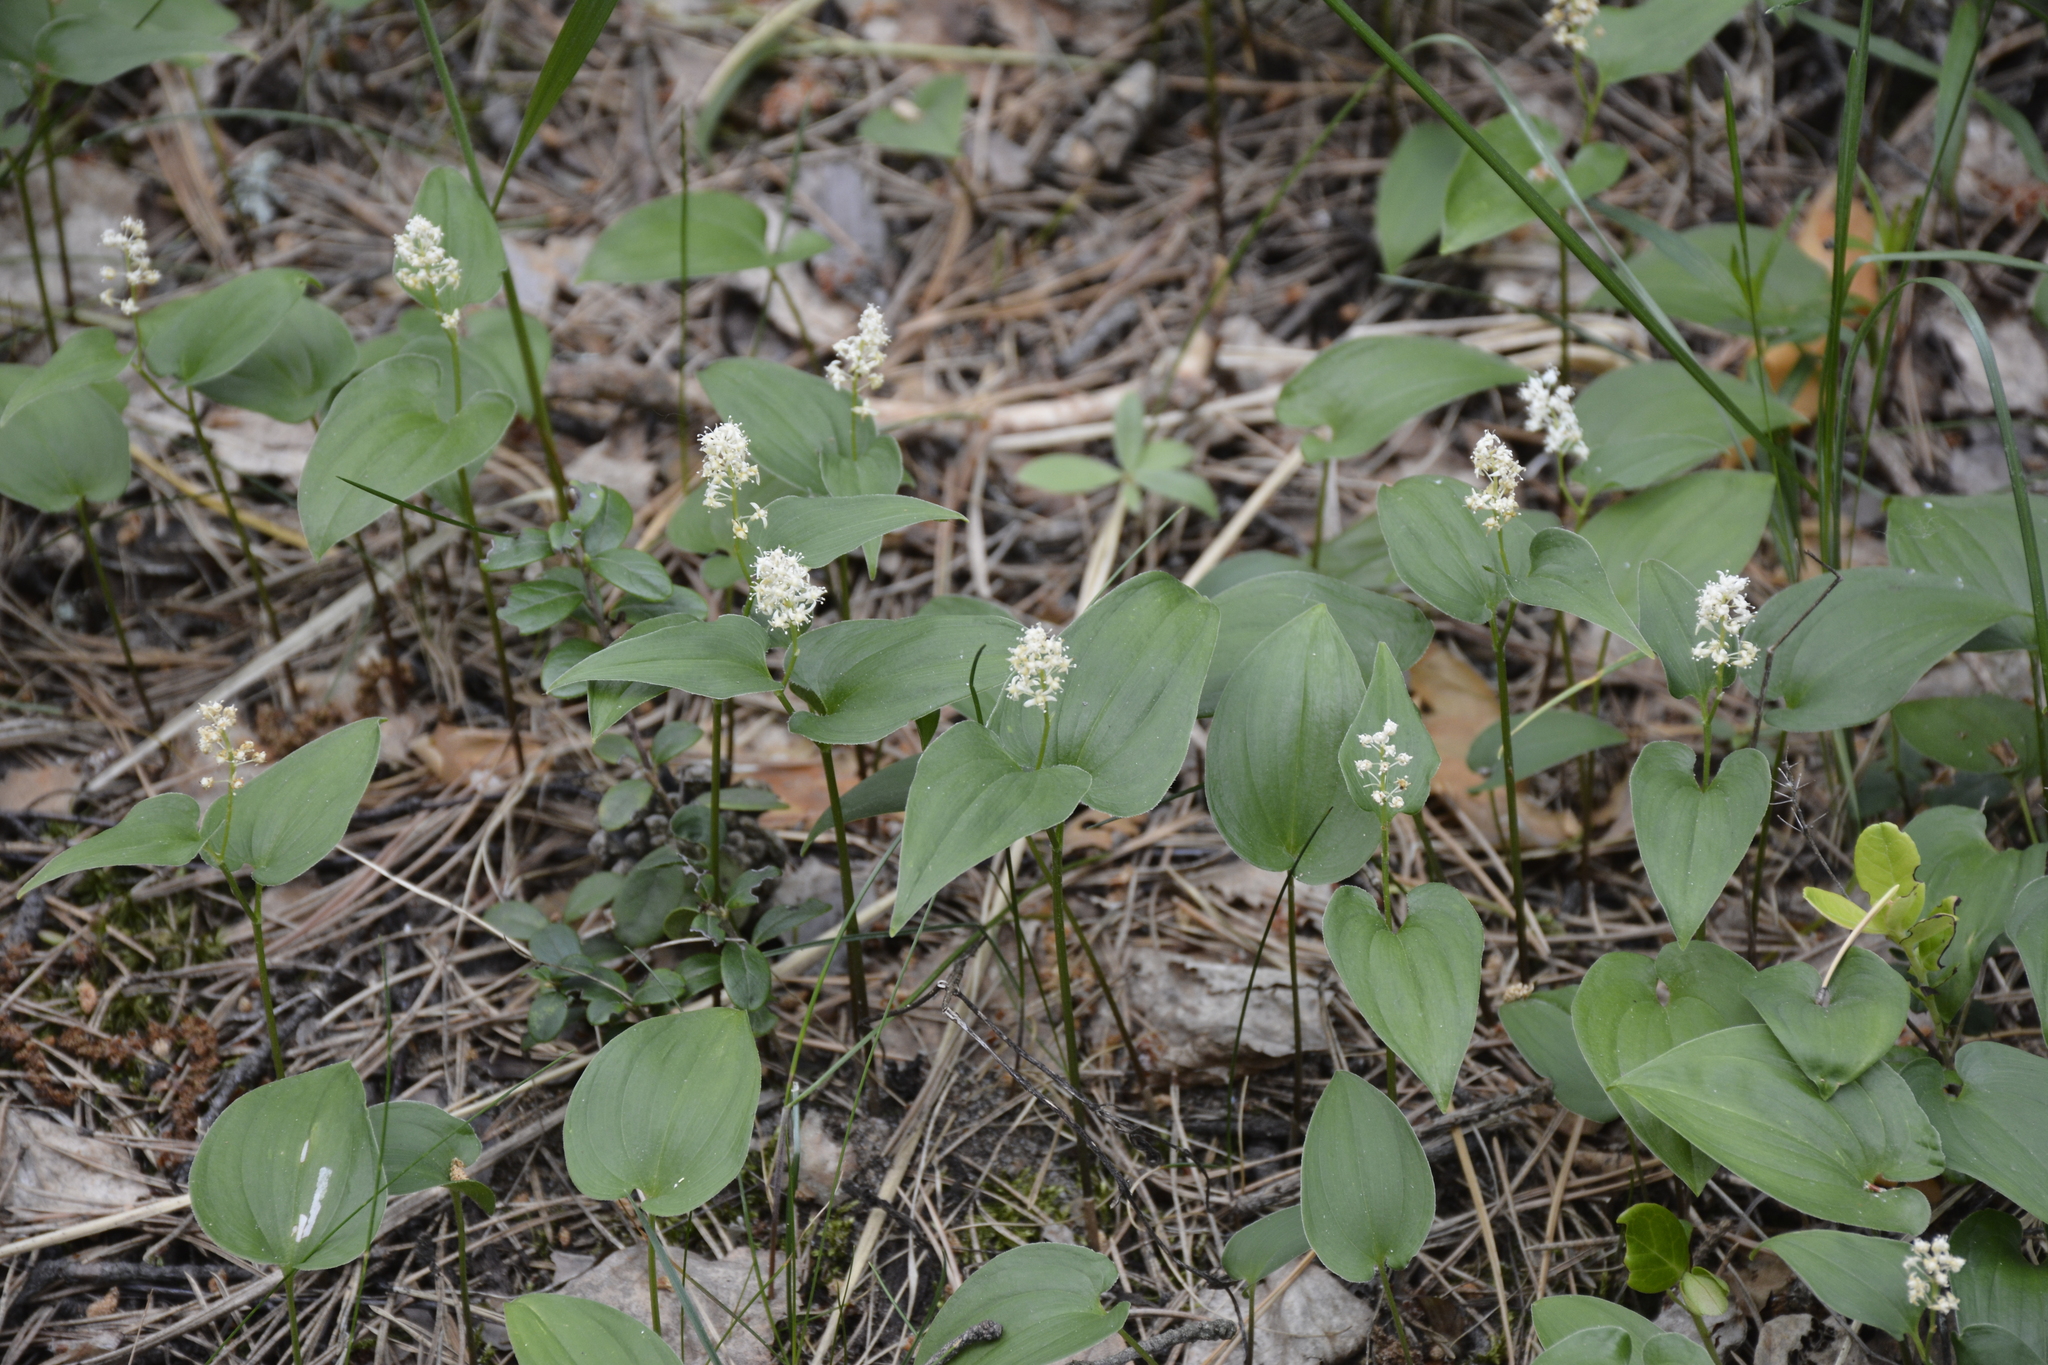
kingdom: Plantae
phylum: Tracheophyta
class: Liliopsida
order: Asparagales
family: Asparagaceae
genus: Maianthemum
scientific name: Maianthemum bifolium
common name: May lily
